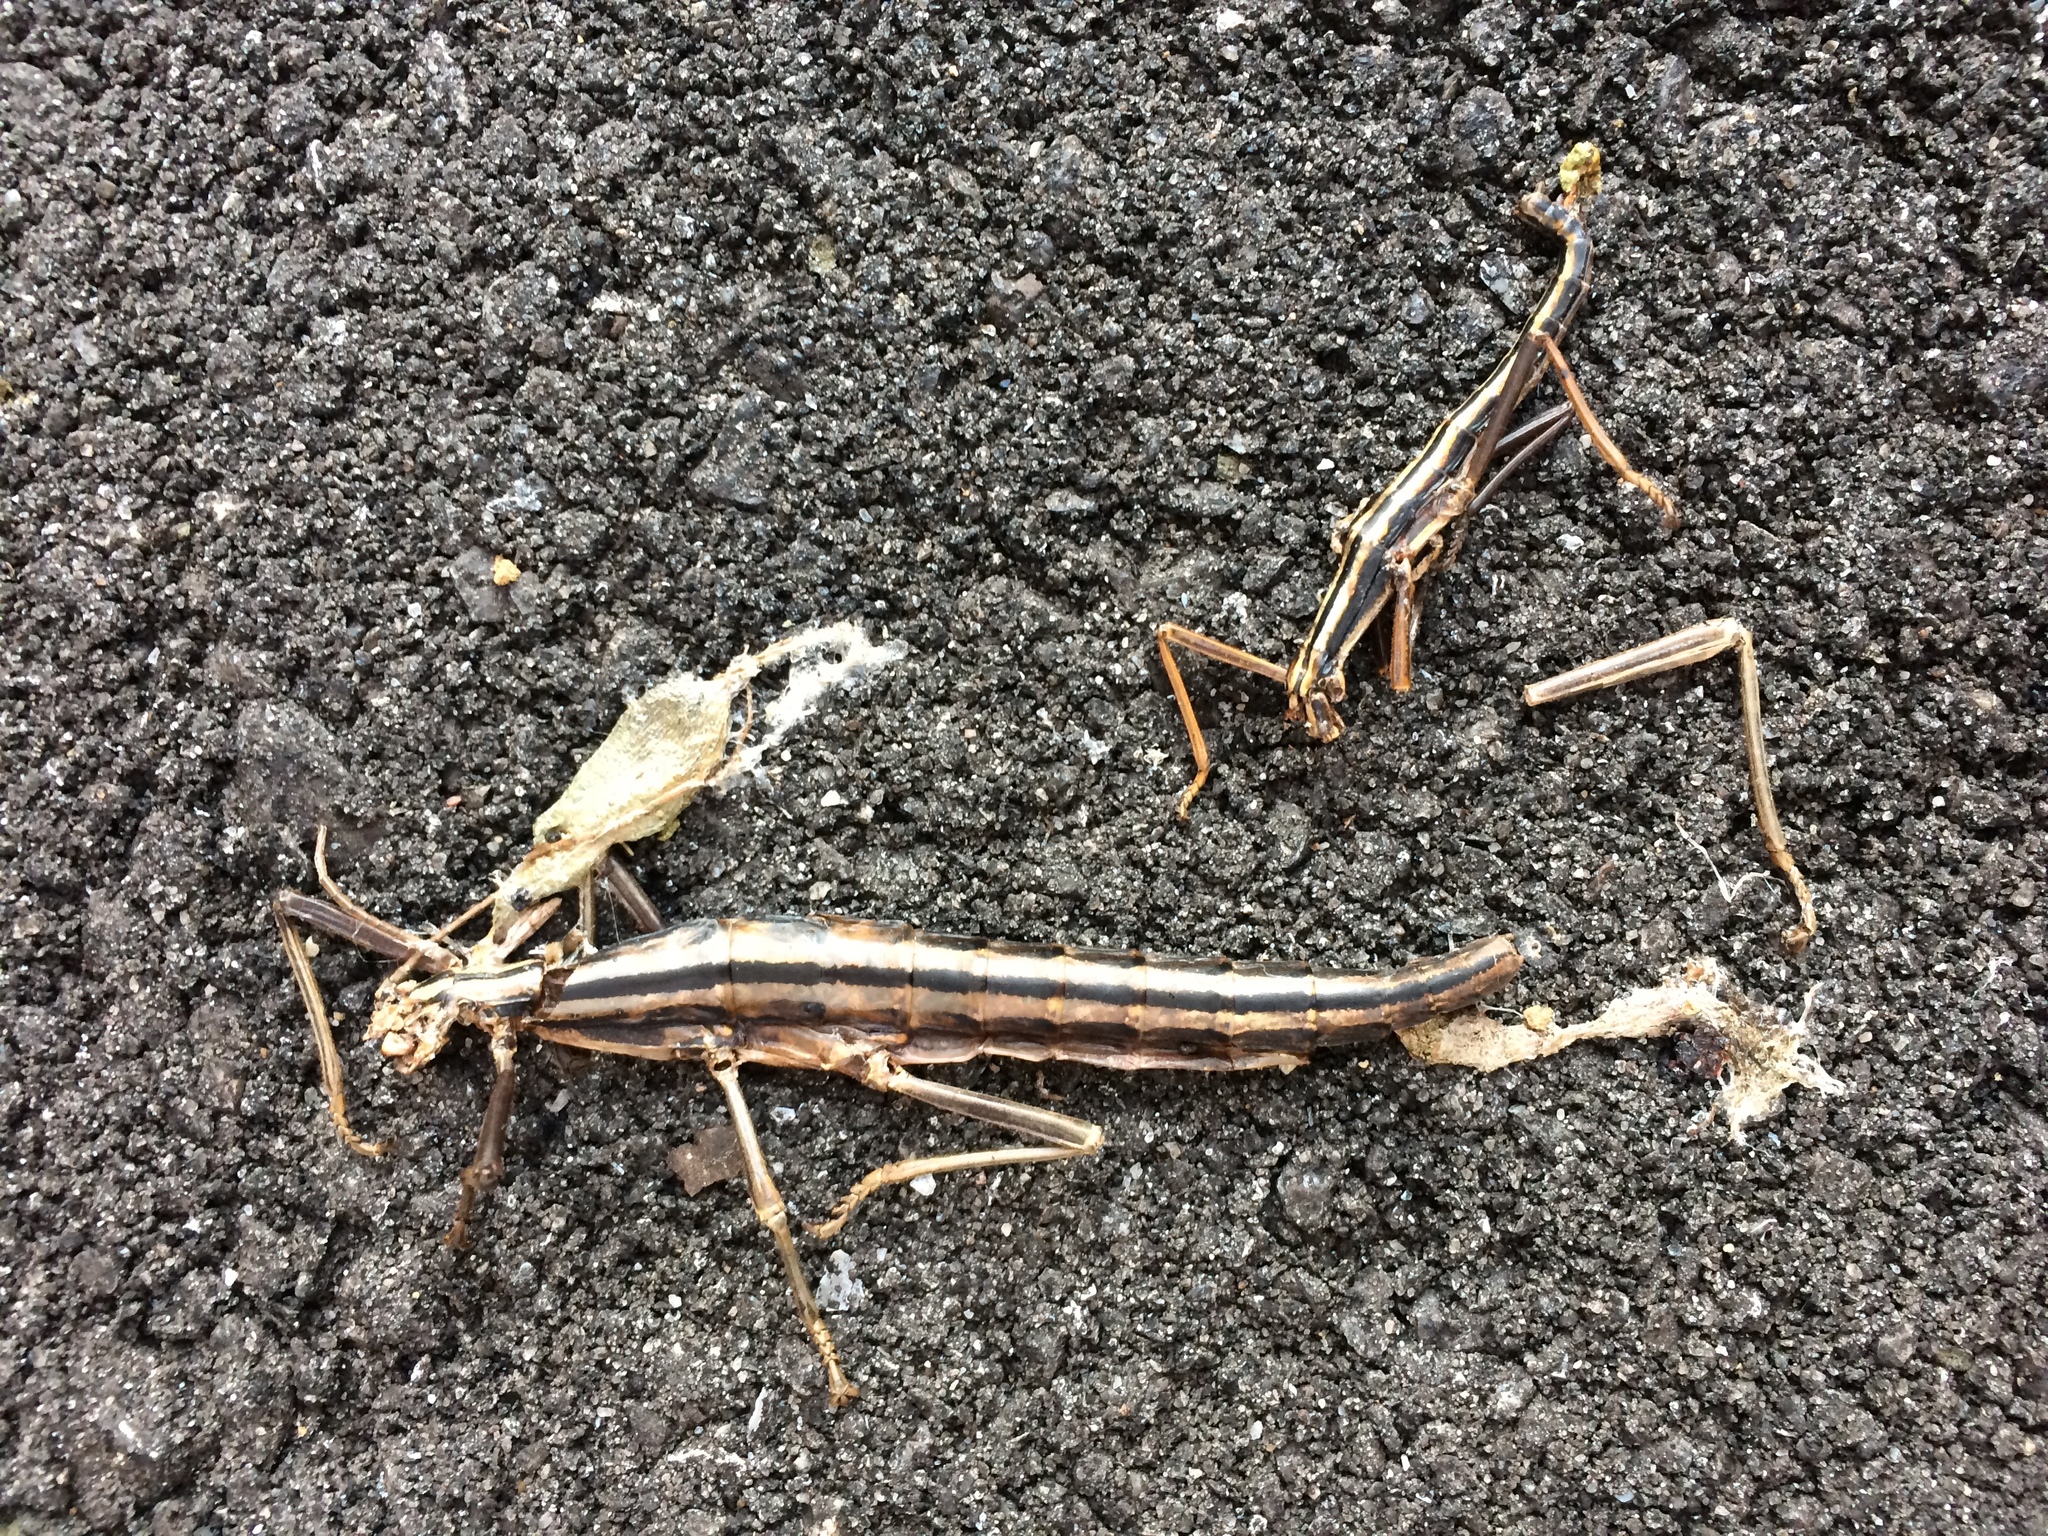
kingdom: Animalia
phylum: Arthropoda
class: Insecta
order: Phasmida
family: Pseudophasmatidae
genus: Anisomorpha
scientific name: Anisomorpha buprestoides
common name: Florida stick insect
